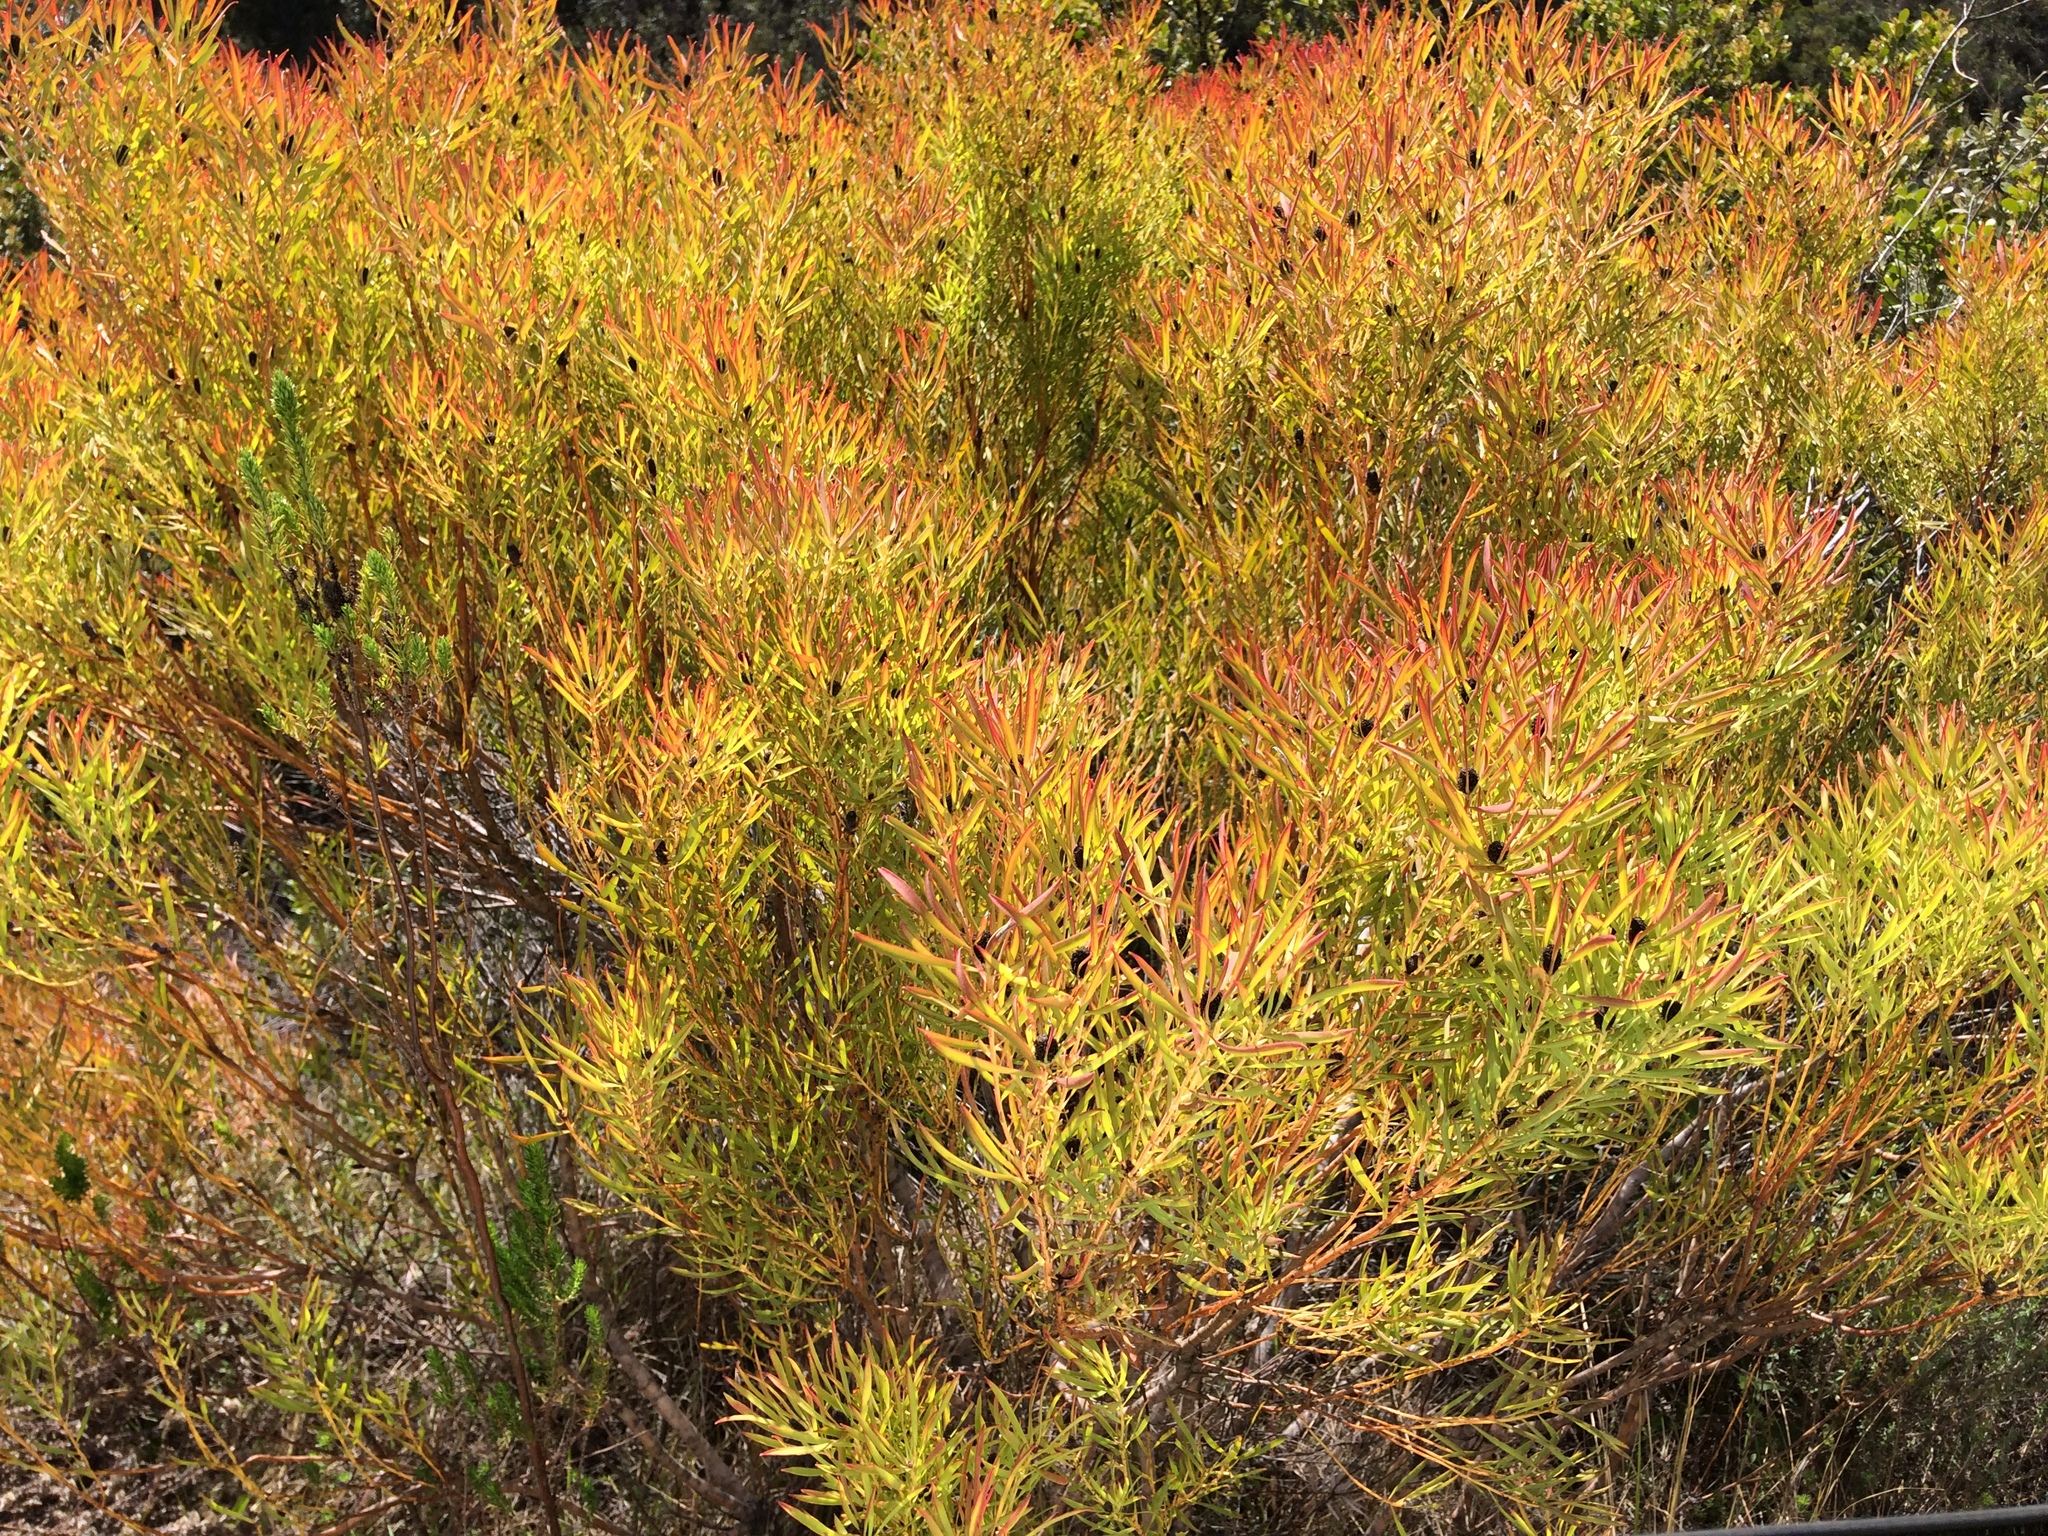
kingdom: Plantae
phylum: Tracheophyta
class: Magnoliopsida
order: Proteales
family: Proteaceae
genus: Leucadendron
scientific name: Leucadendron salignum
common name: Common sunshine conebush
